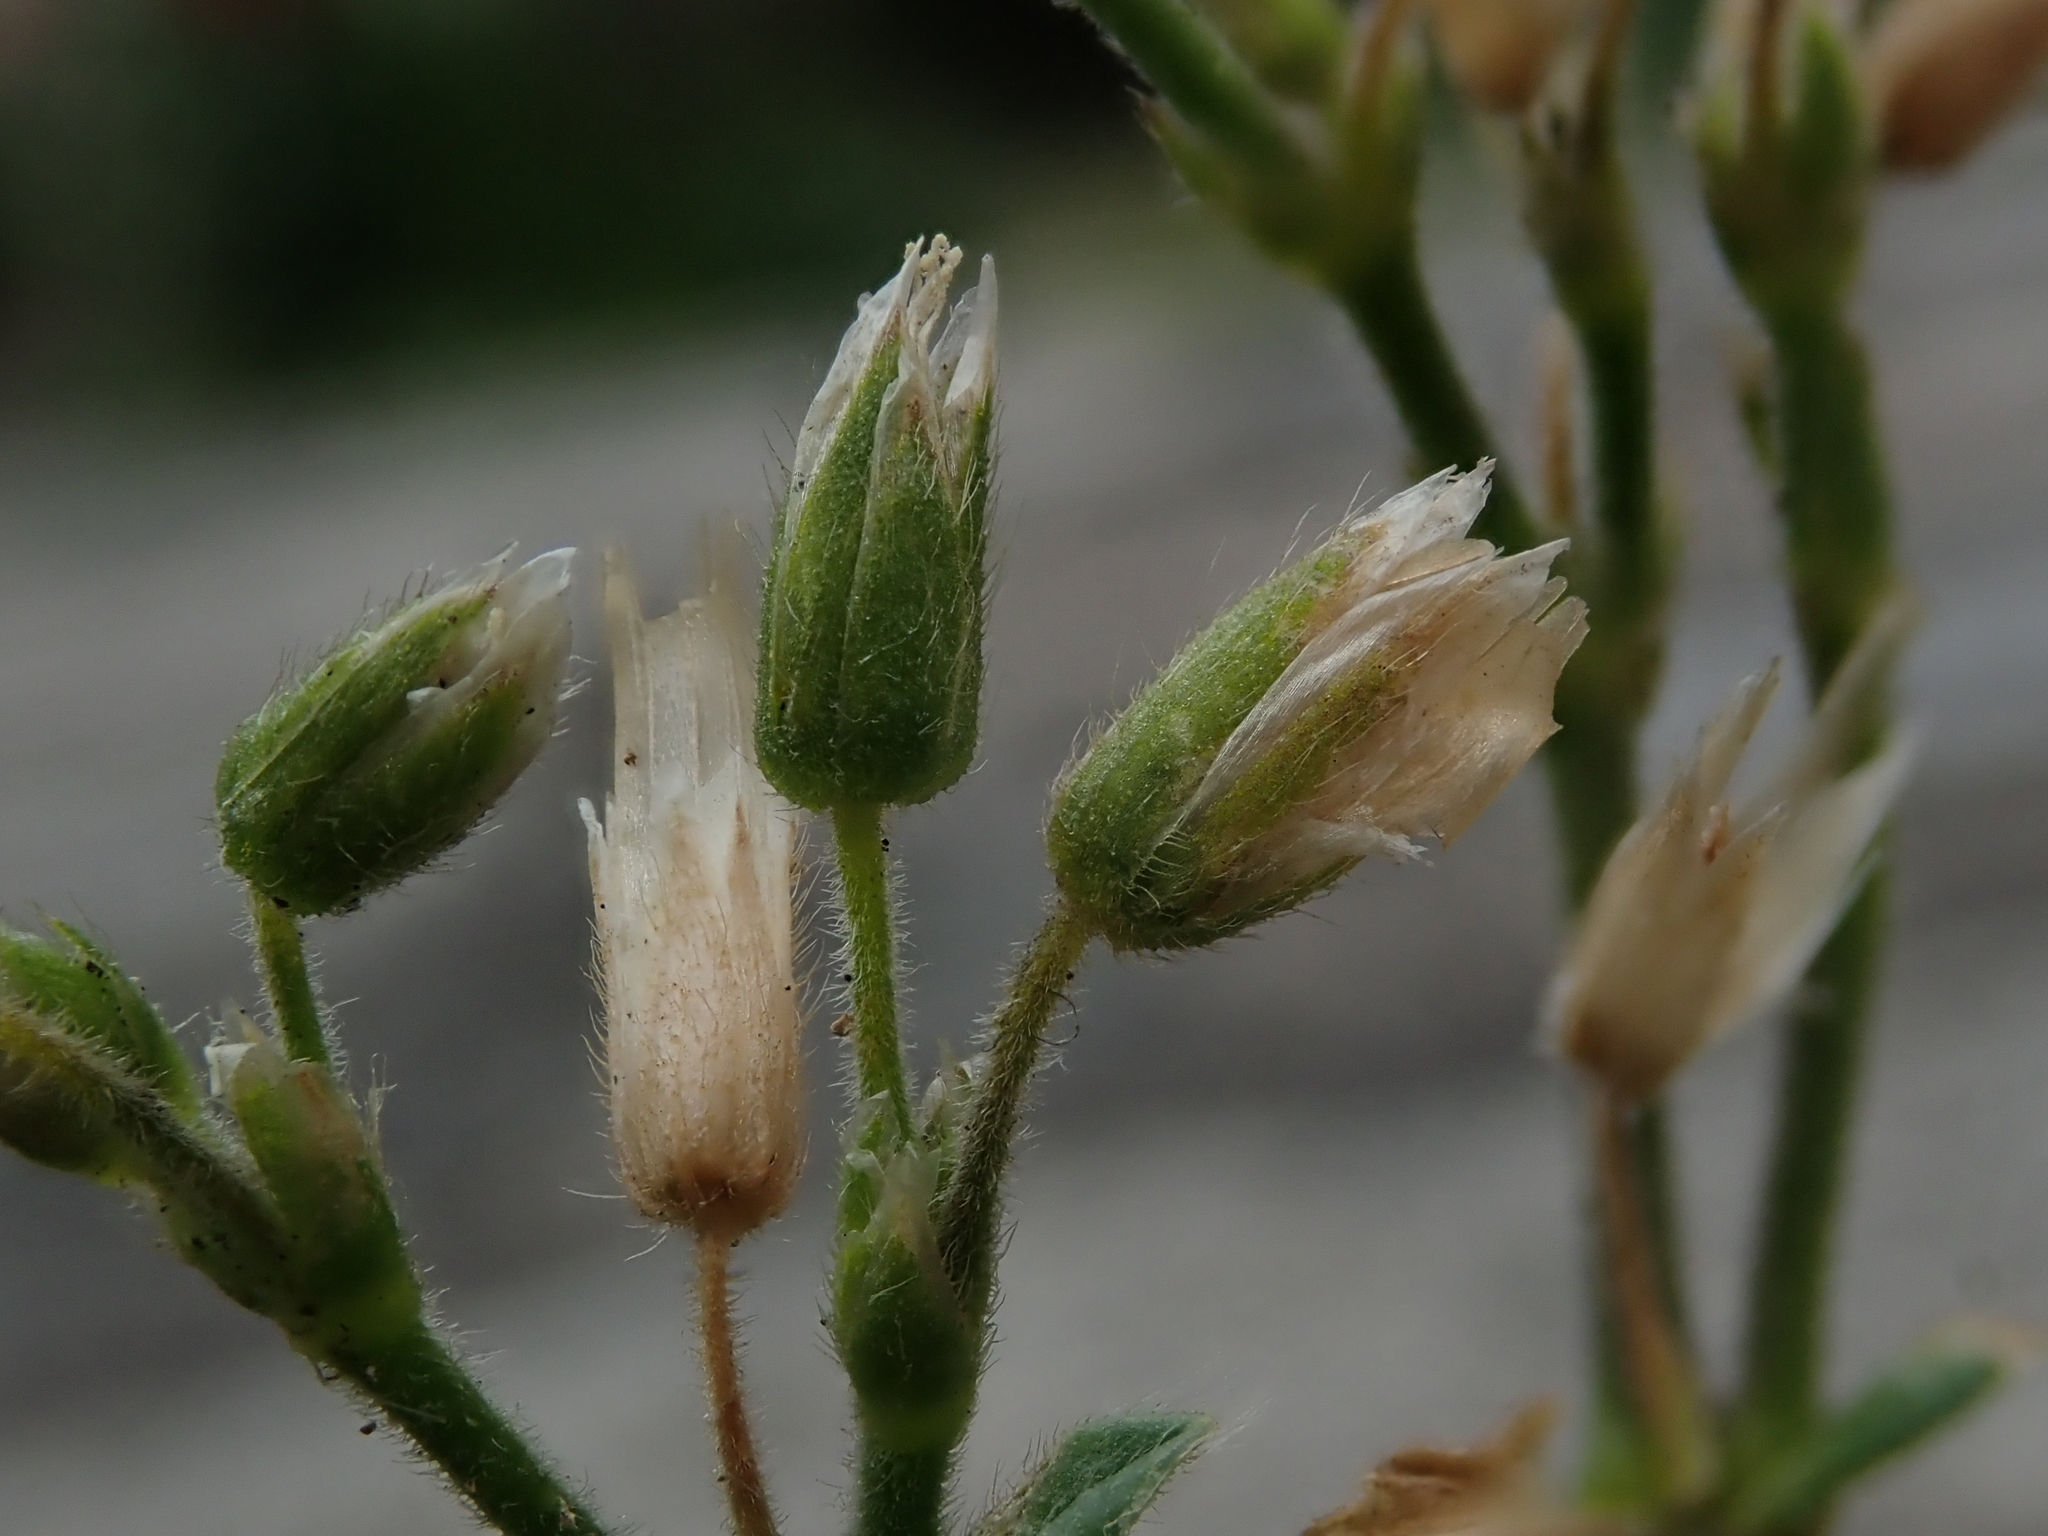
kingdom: Plantae
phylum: Tracheophyta
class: Magnoliopsida
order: Caryophyllales
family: Caryophyllaceae
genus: Cerastium
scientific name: Cerastium fontanum
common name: Common mouse-ear
